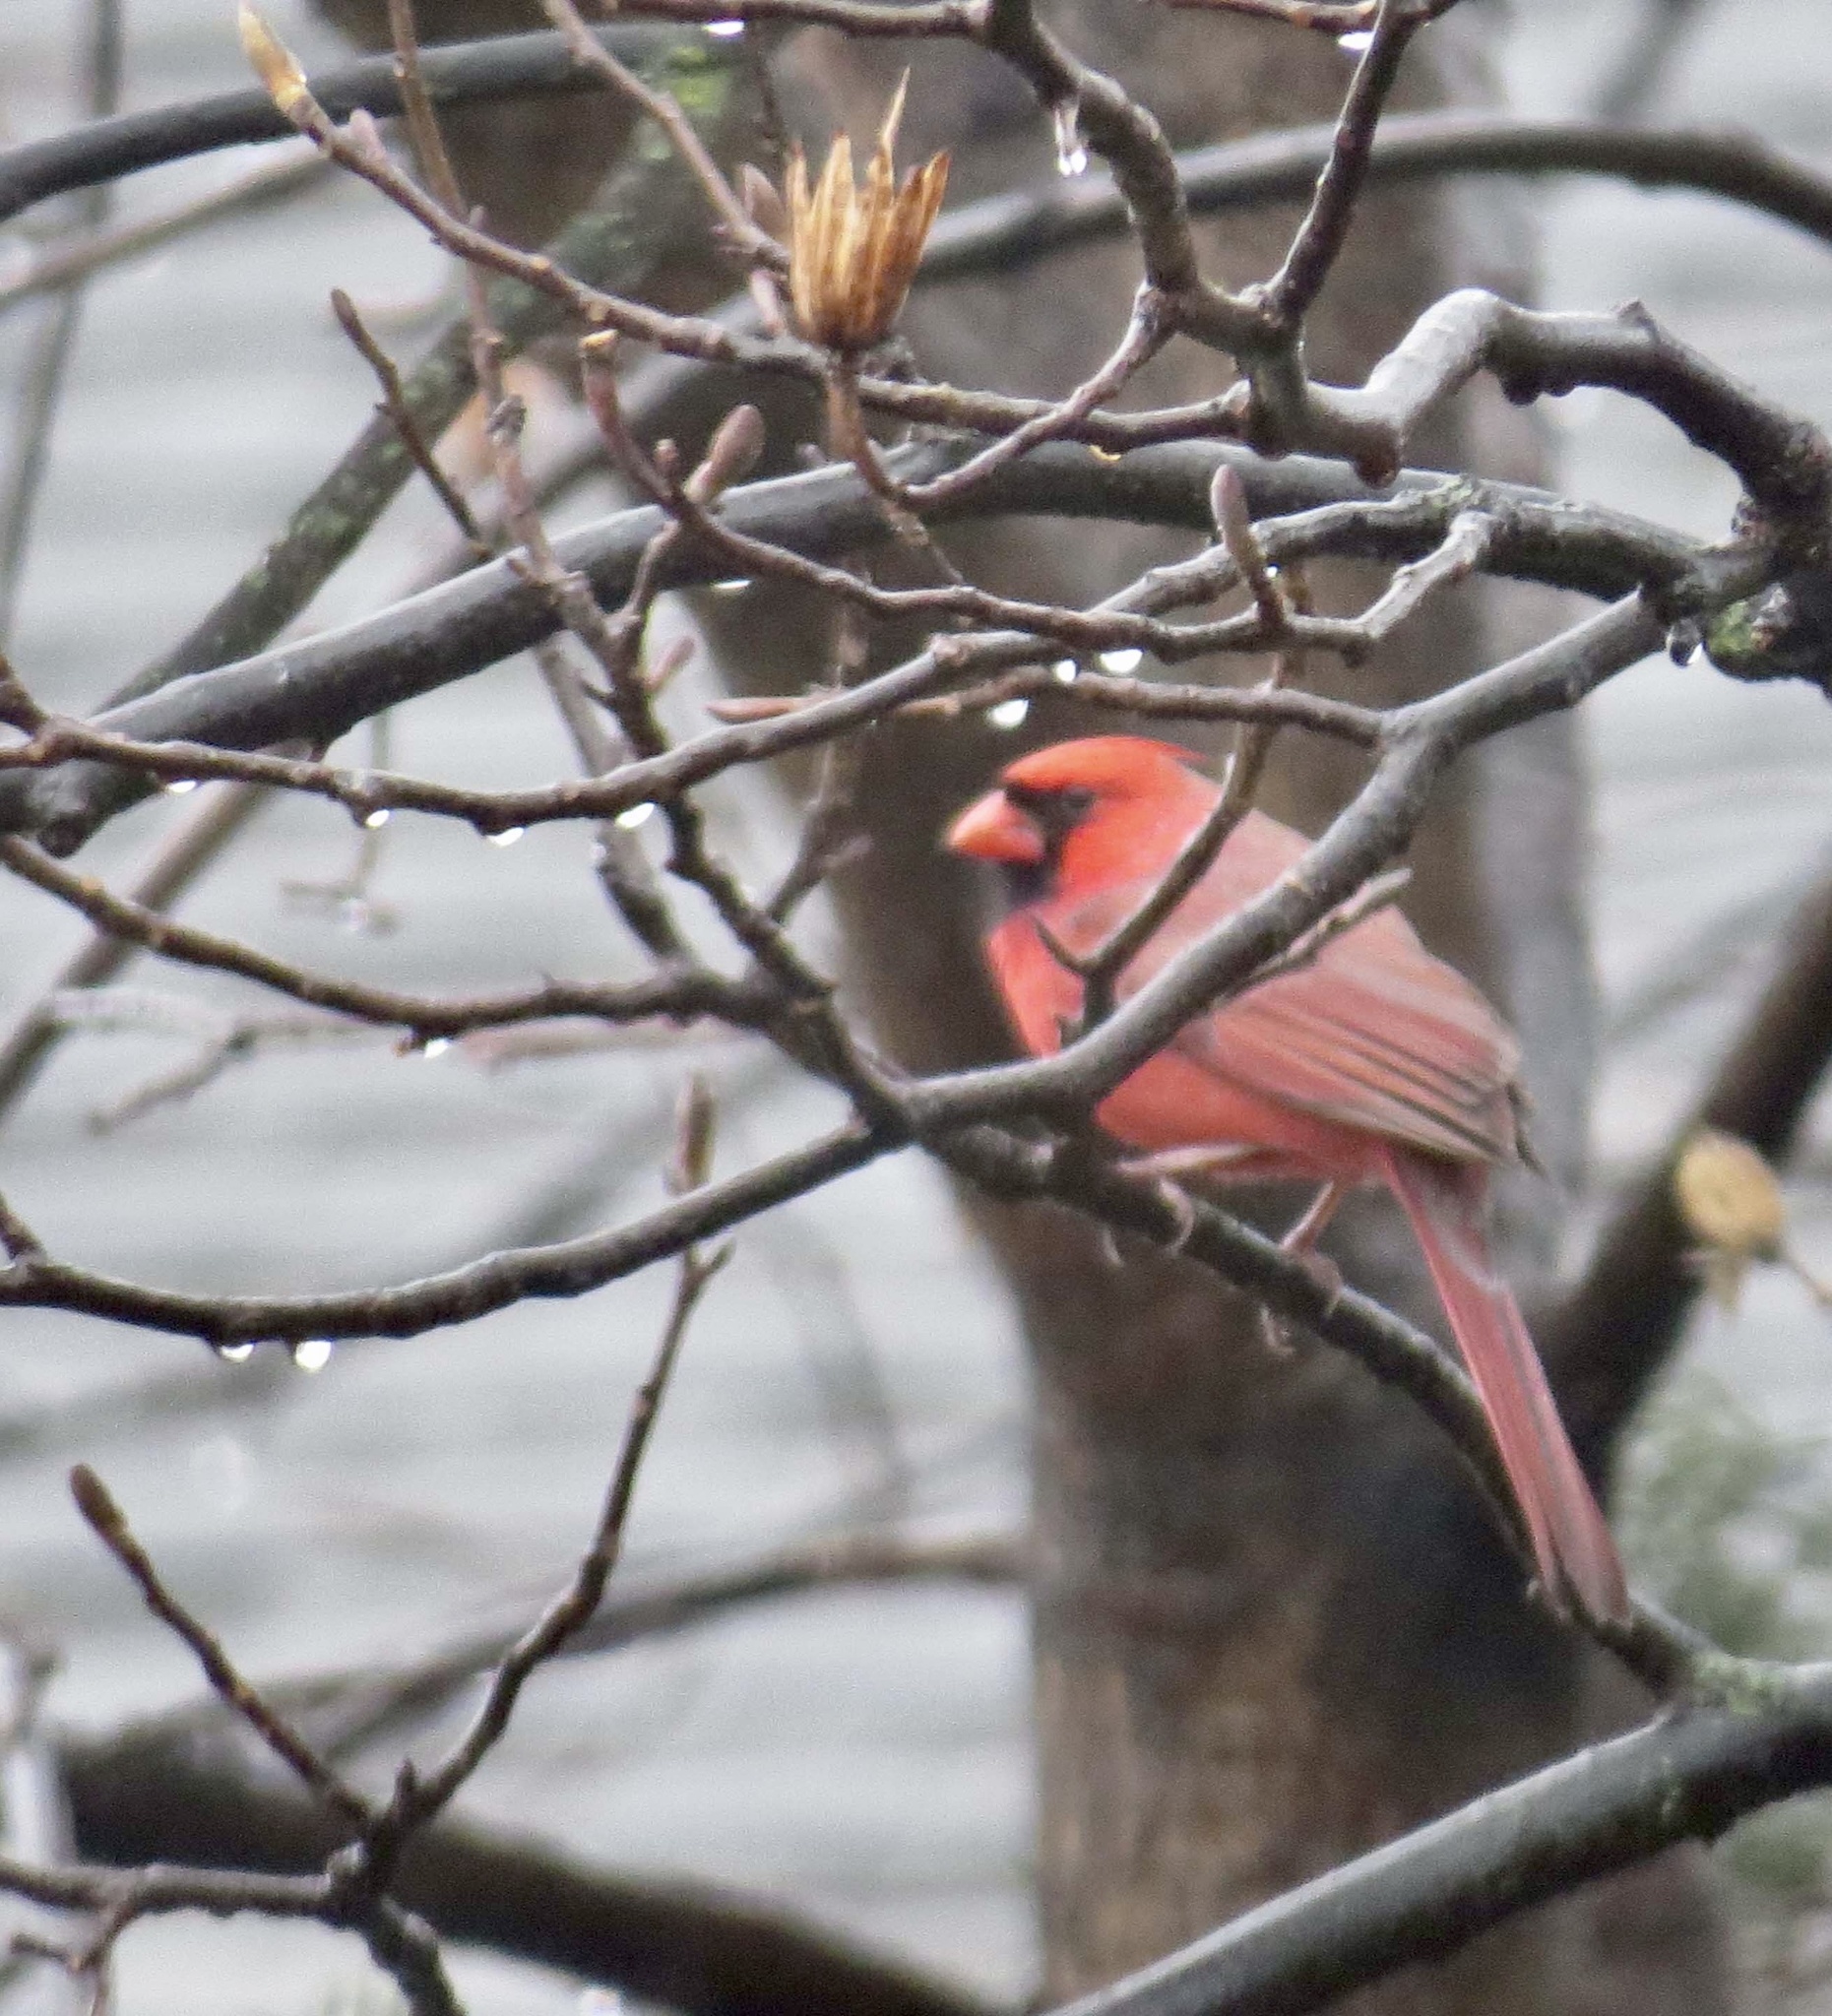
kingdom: Animalia
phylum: Chordata
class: Aves
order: Passeriformes
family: Cardinalidae
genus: Cardinalis
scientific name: Cardinalis cardinalis
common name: Northern cardinal
